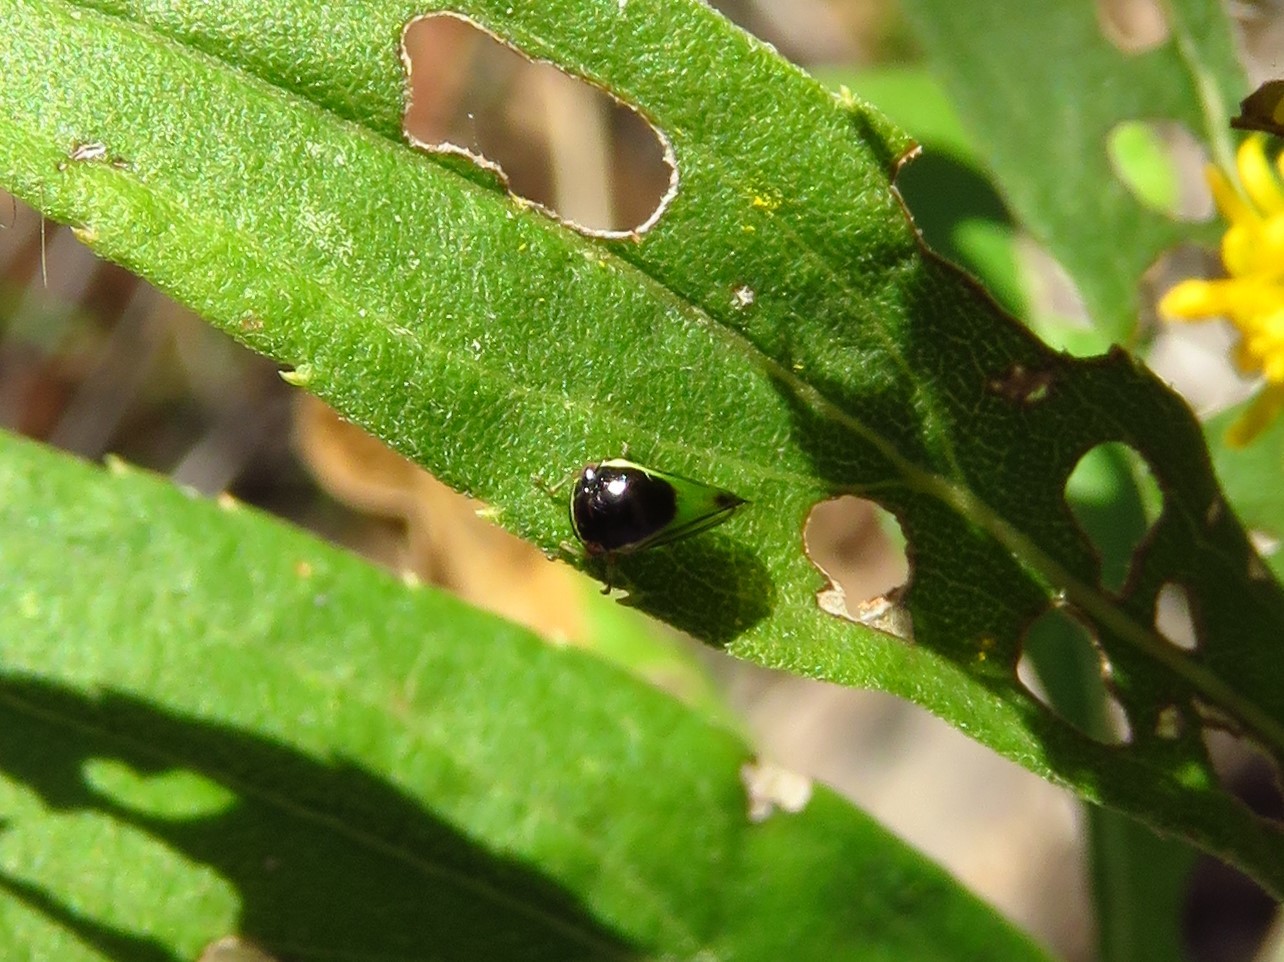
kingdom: Animalia
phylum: Arthropoda
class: Insecta
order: Hemiptera
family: Membracidae
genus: Acutalis
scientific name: Acutalis tartarea
